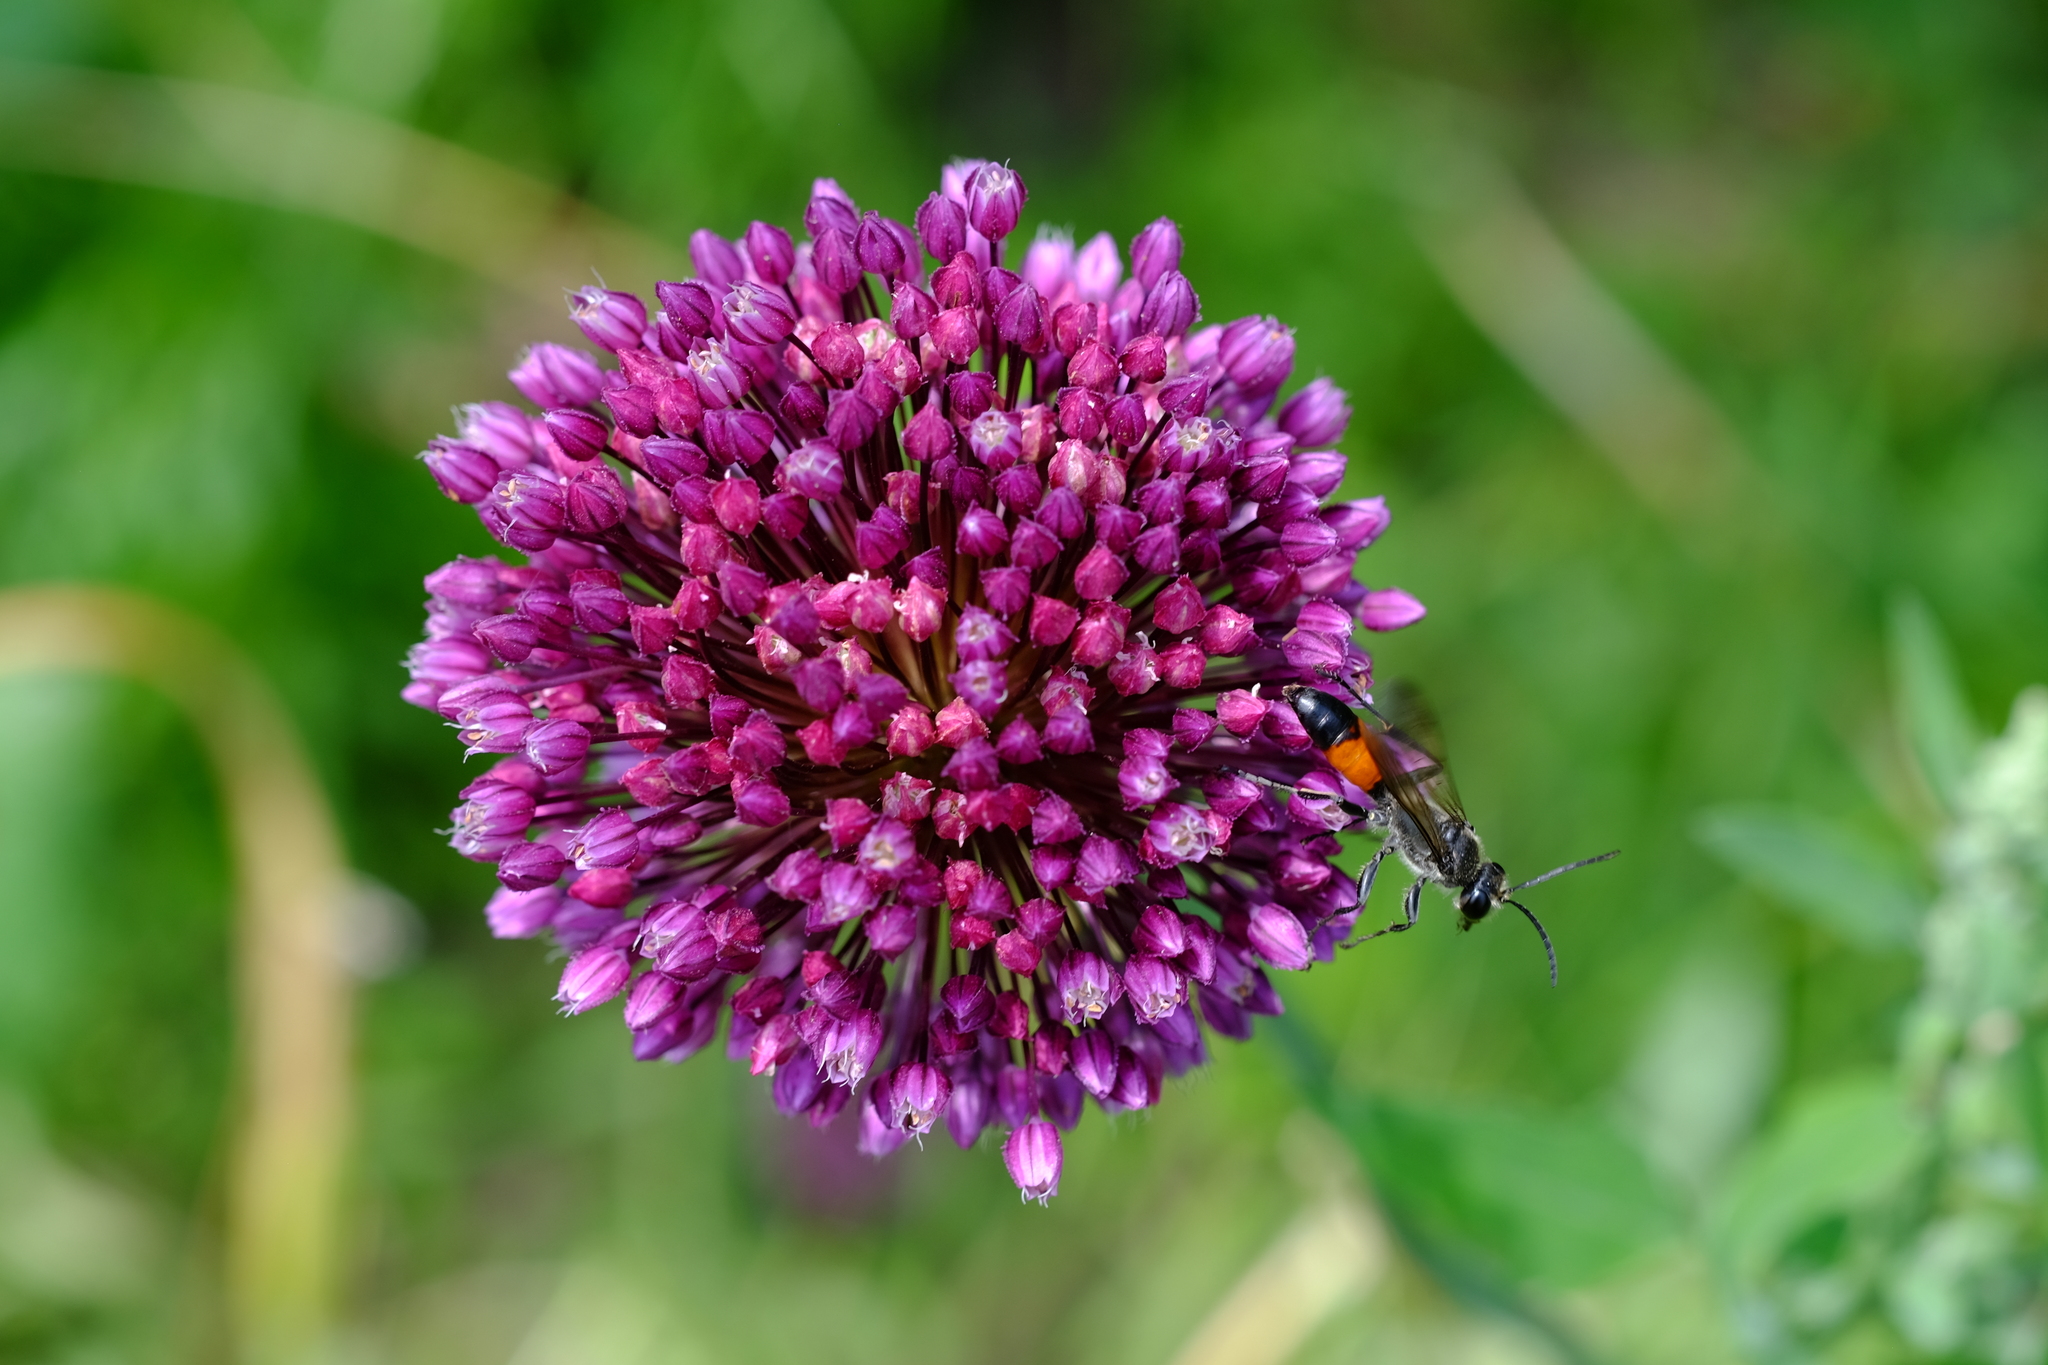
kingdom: Animalia
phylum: Arthropoda
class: Insecta
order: Hymenoptera
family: Sphecidae
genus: Sphex
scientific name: Sphex funerarius
